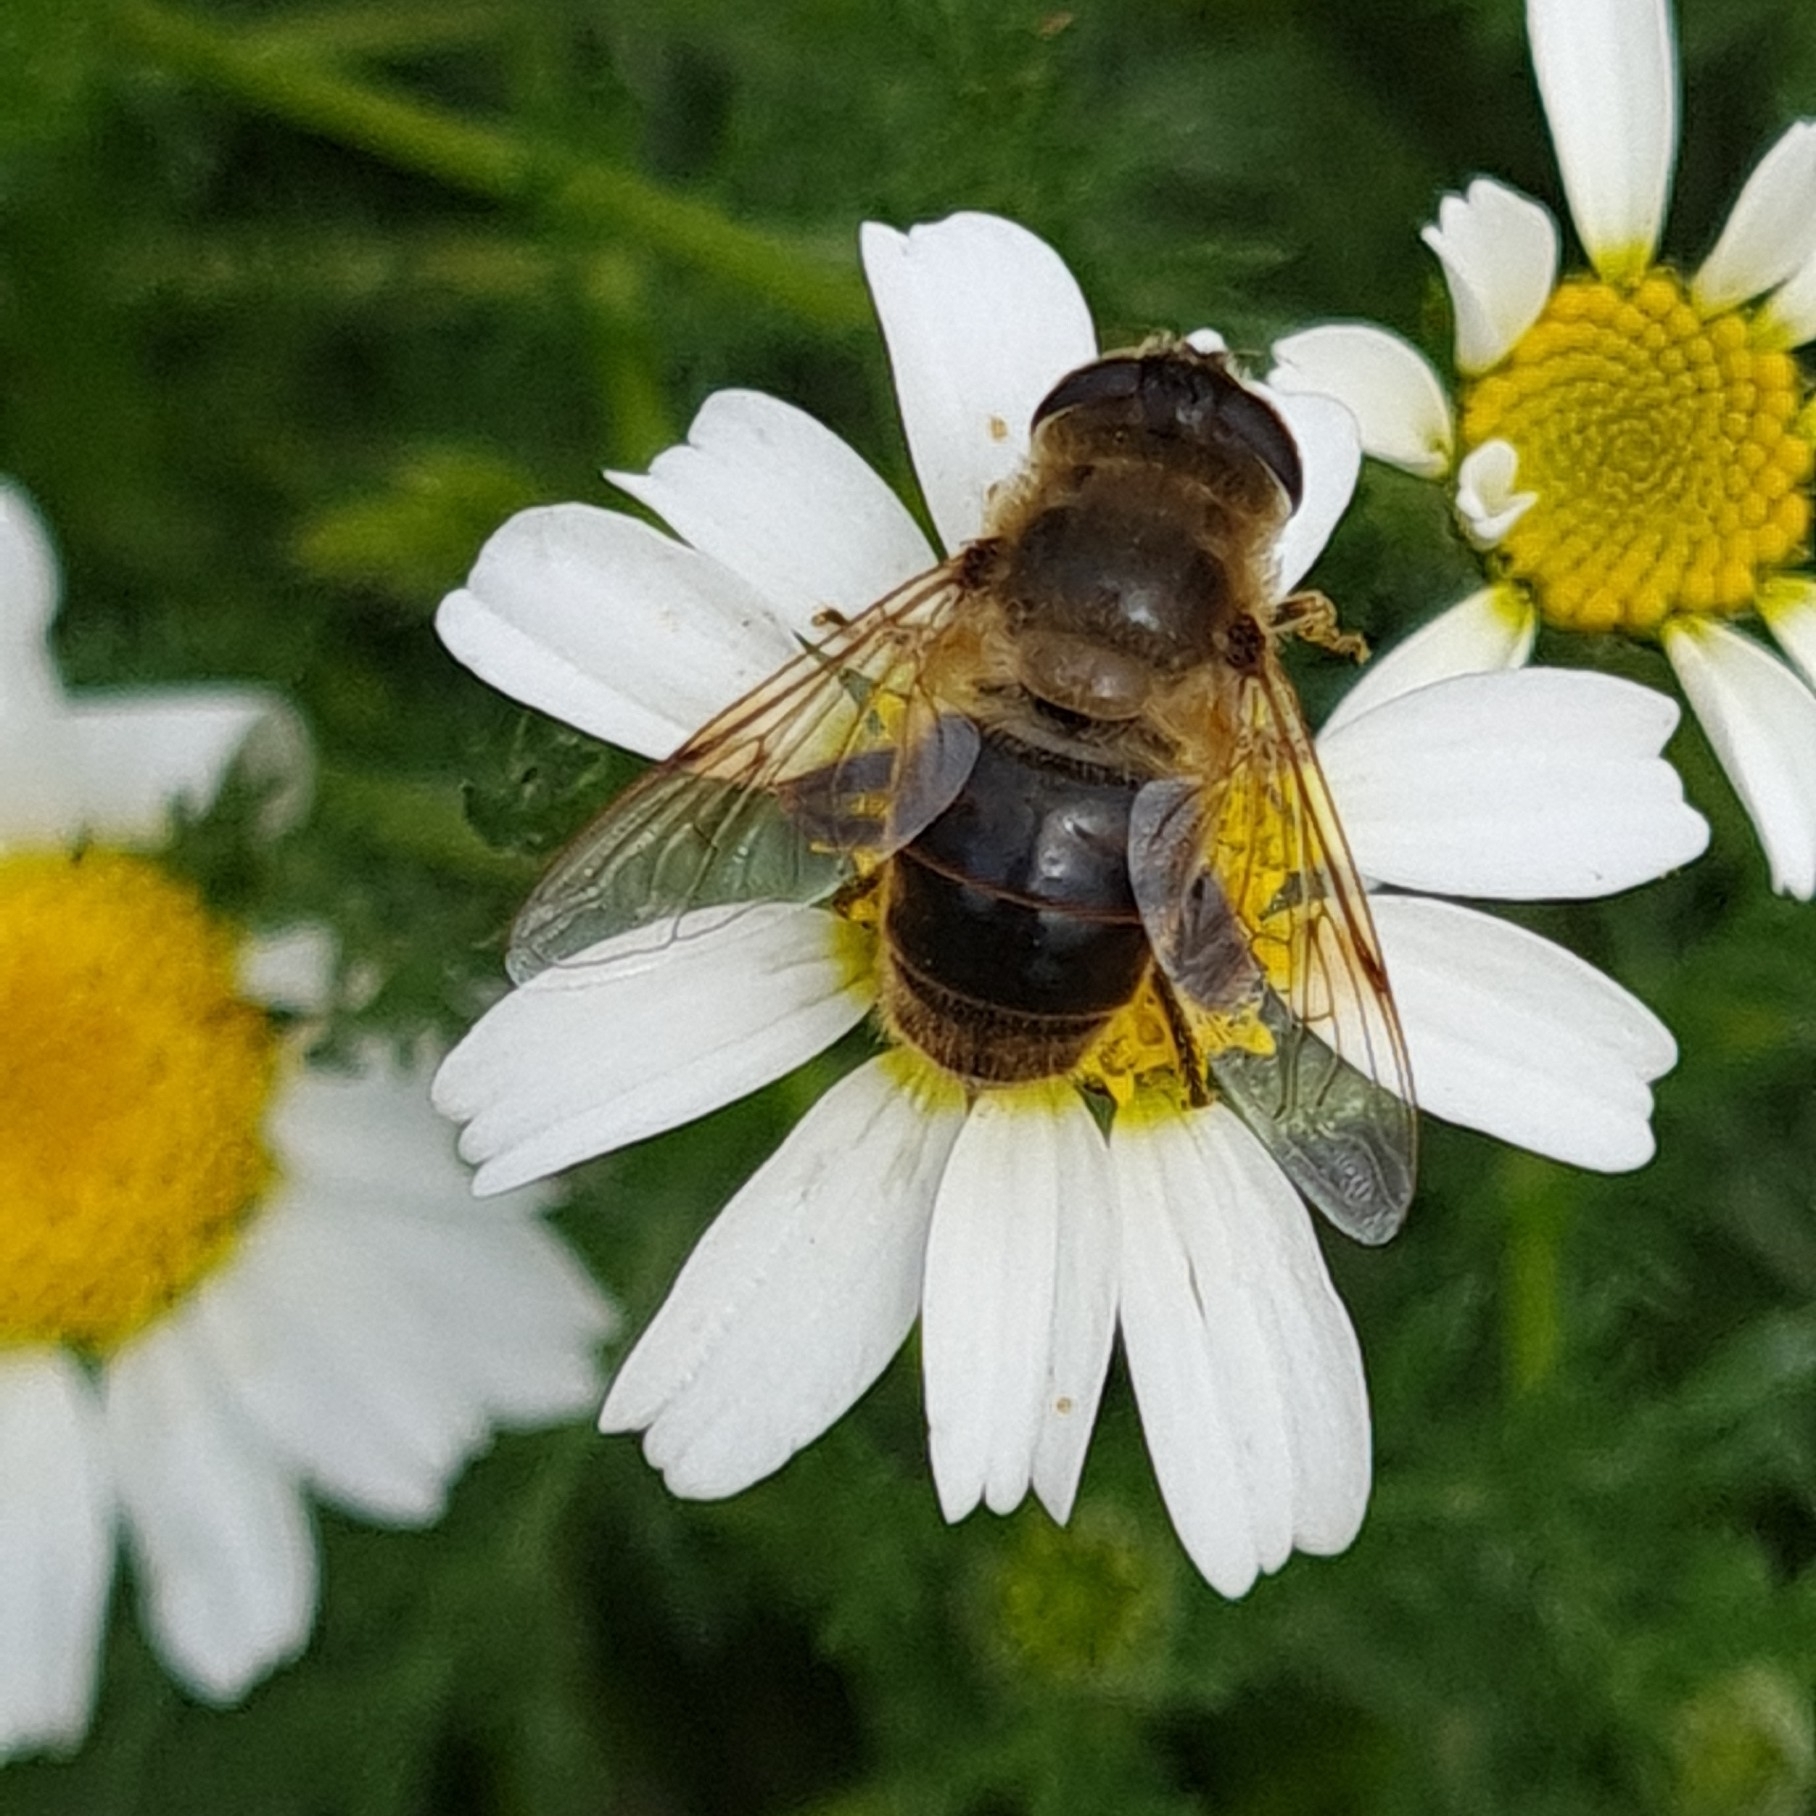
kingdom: Animalia
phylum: Arthropoda
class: Insecta
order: Diptera
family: Syrphidae
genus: Eristalis
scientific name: Eristalis tenax
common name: Drone fly
